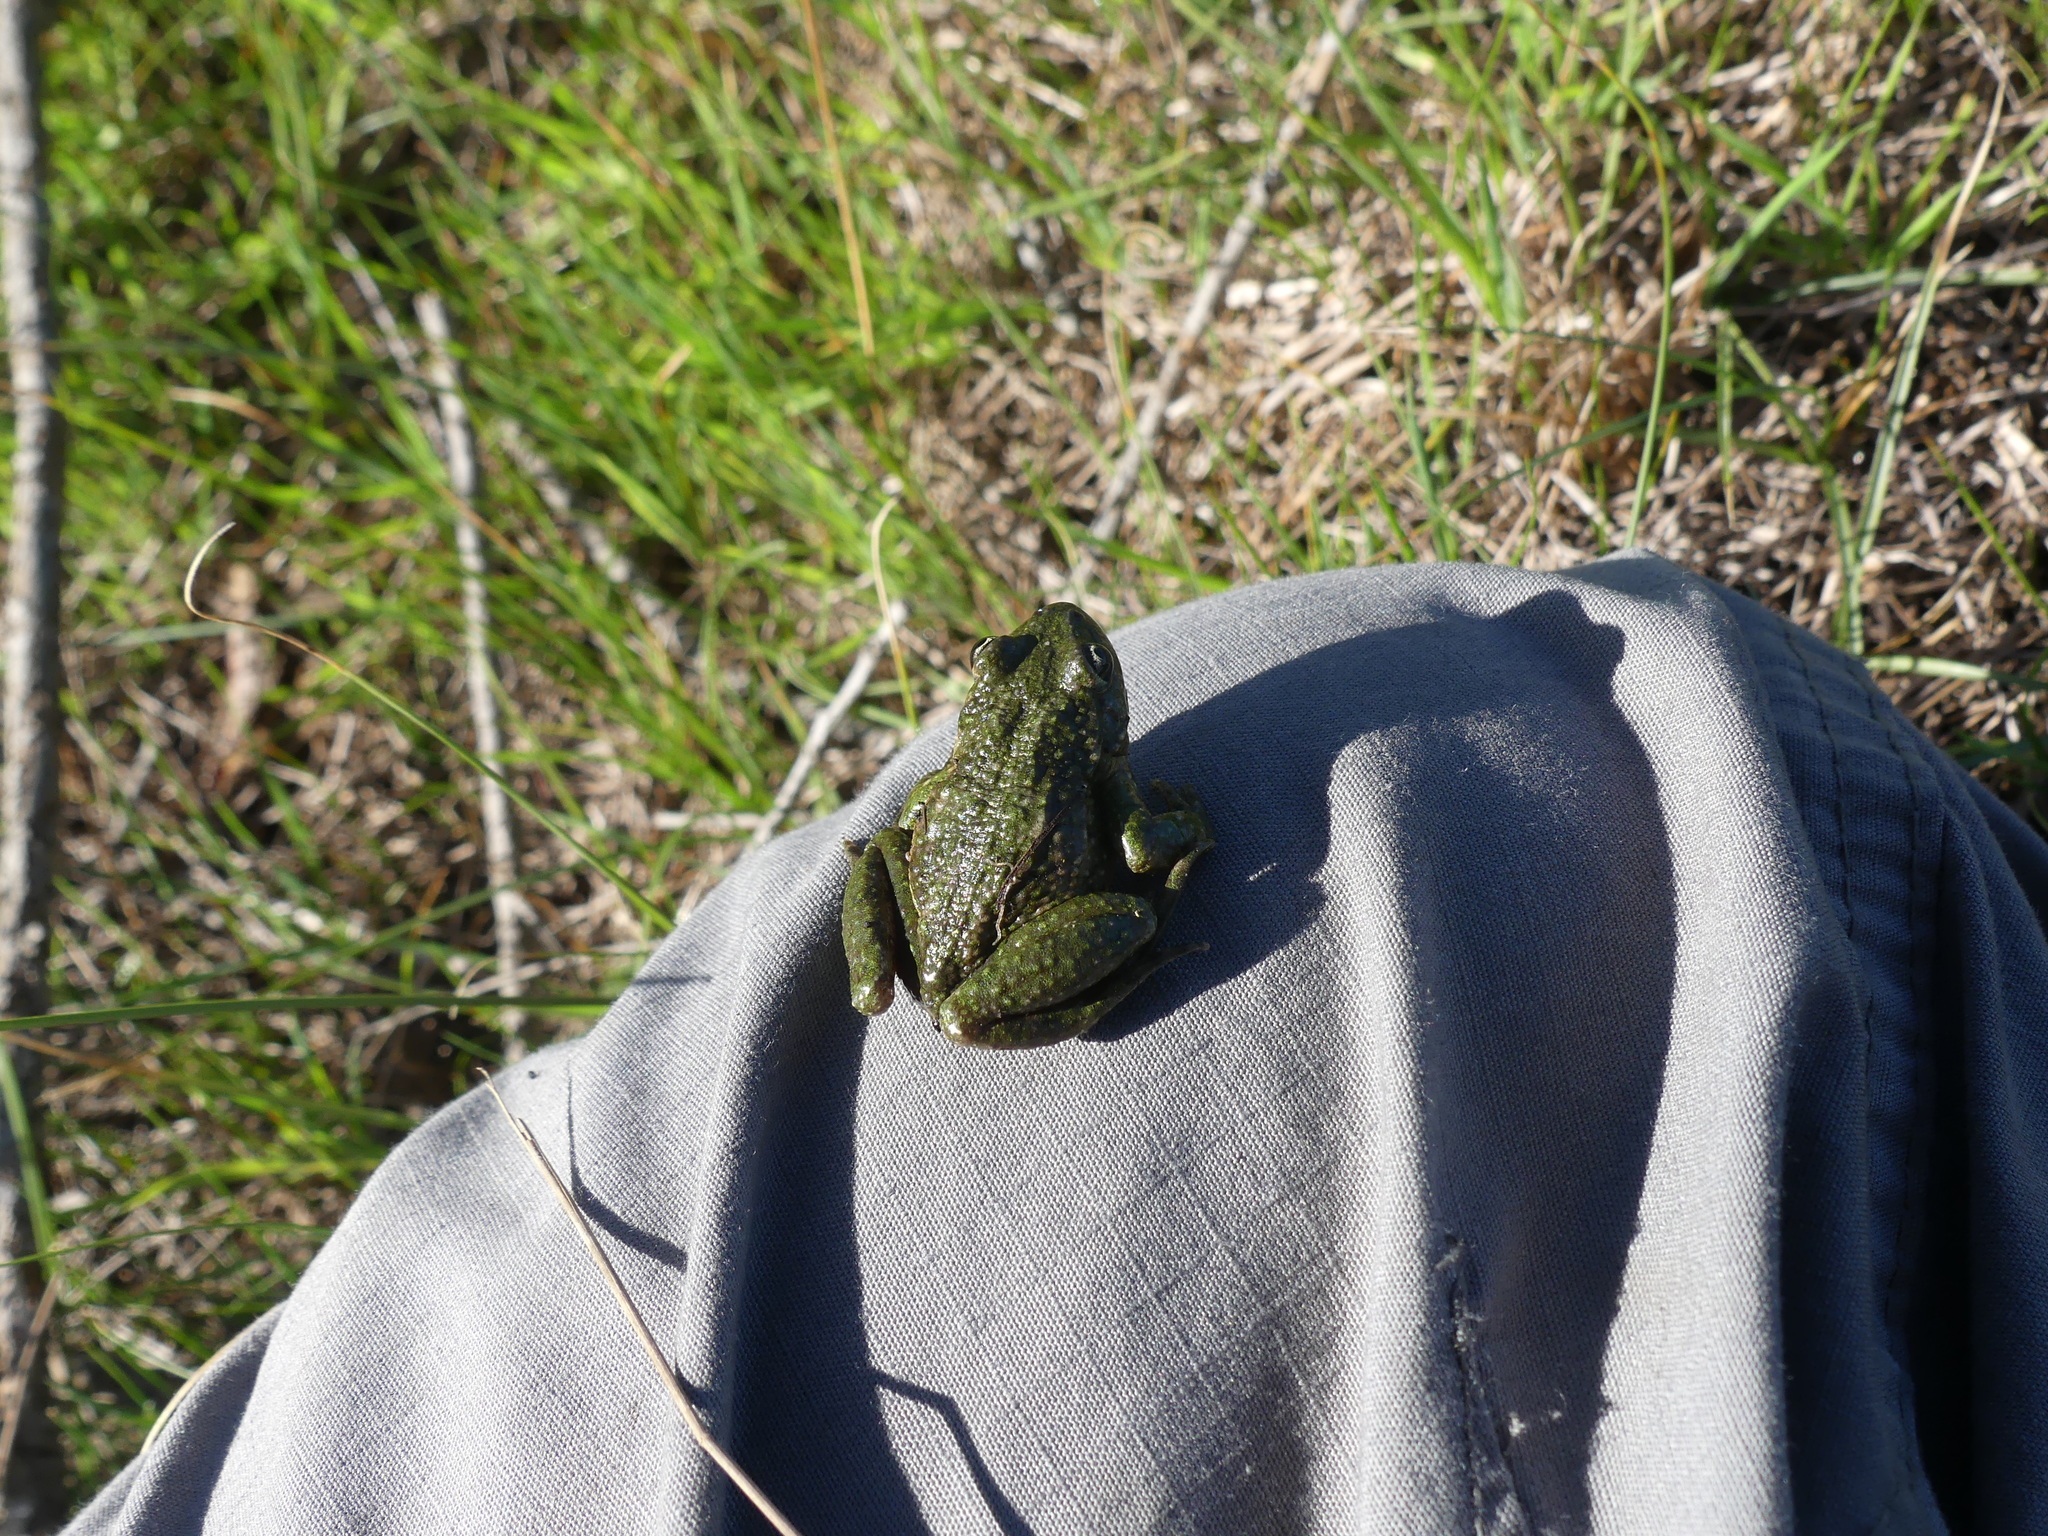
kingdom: Animalia
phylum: Chordata
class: Amphibia
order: Anura
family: Pelodytidae
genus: Pelodytes
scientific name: Pelodytes punctatus
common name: Parsley frog
